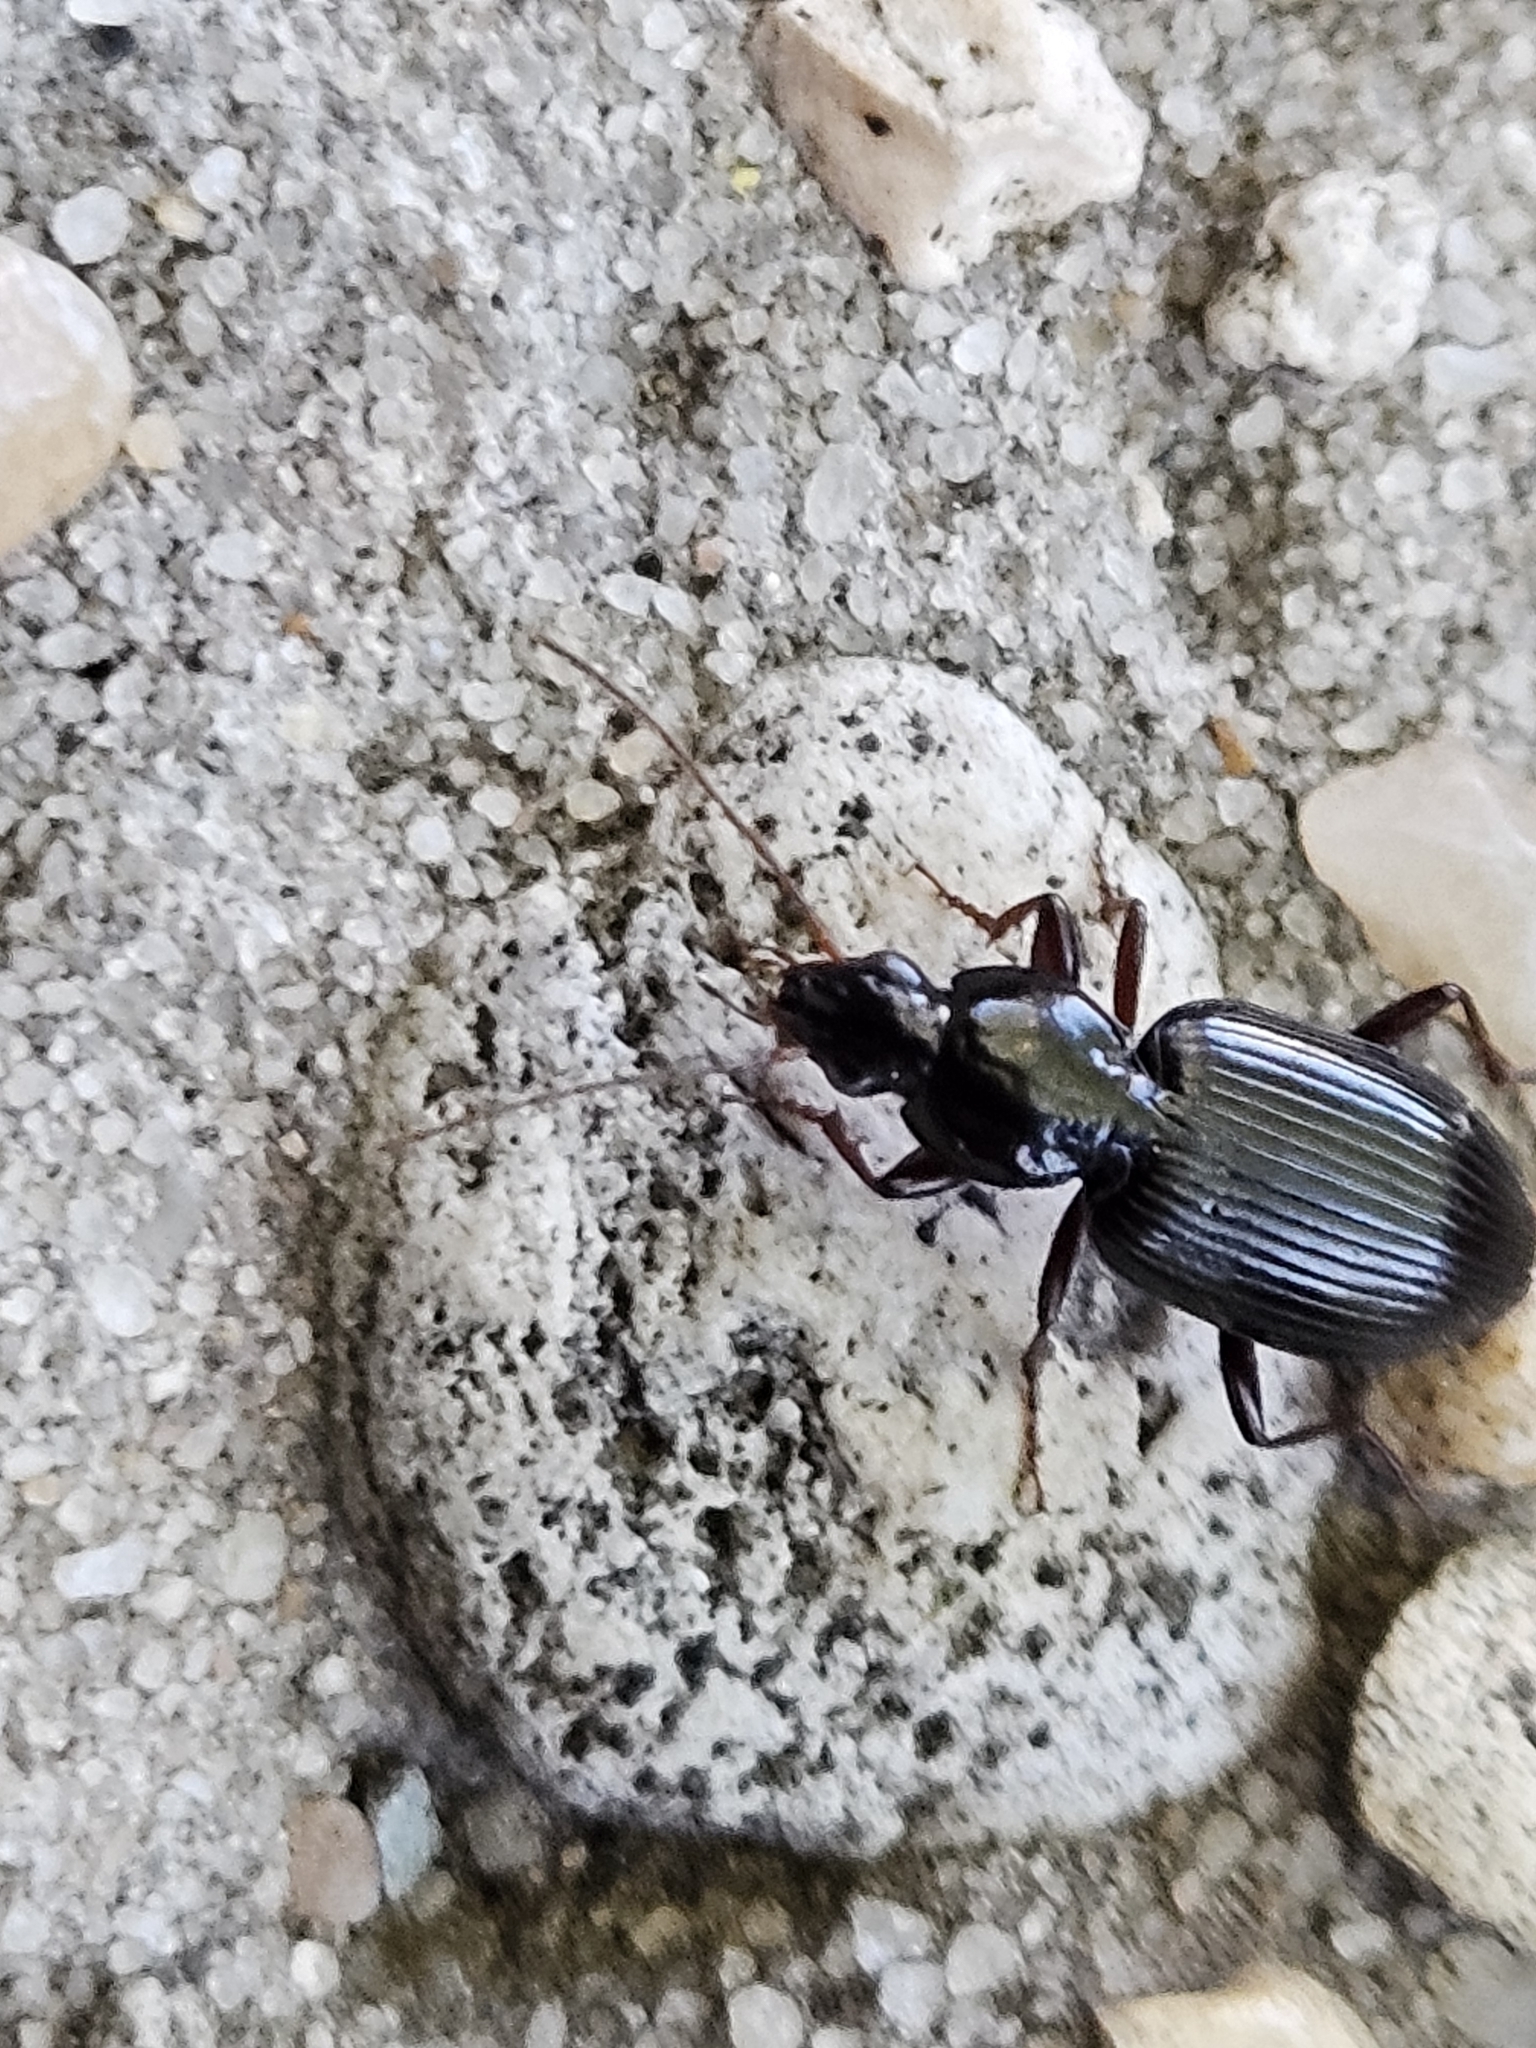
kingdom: Animalia
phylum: Arthropoda
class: Insecta
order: Coleoptera
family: Carabidae
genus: Agonum
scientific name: Agonum punctiforme
